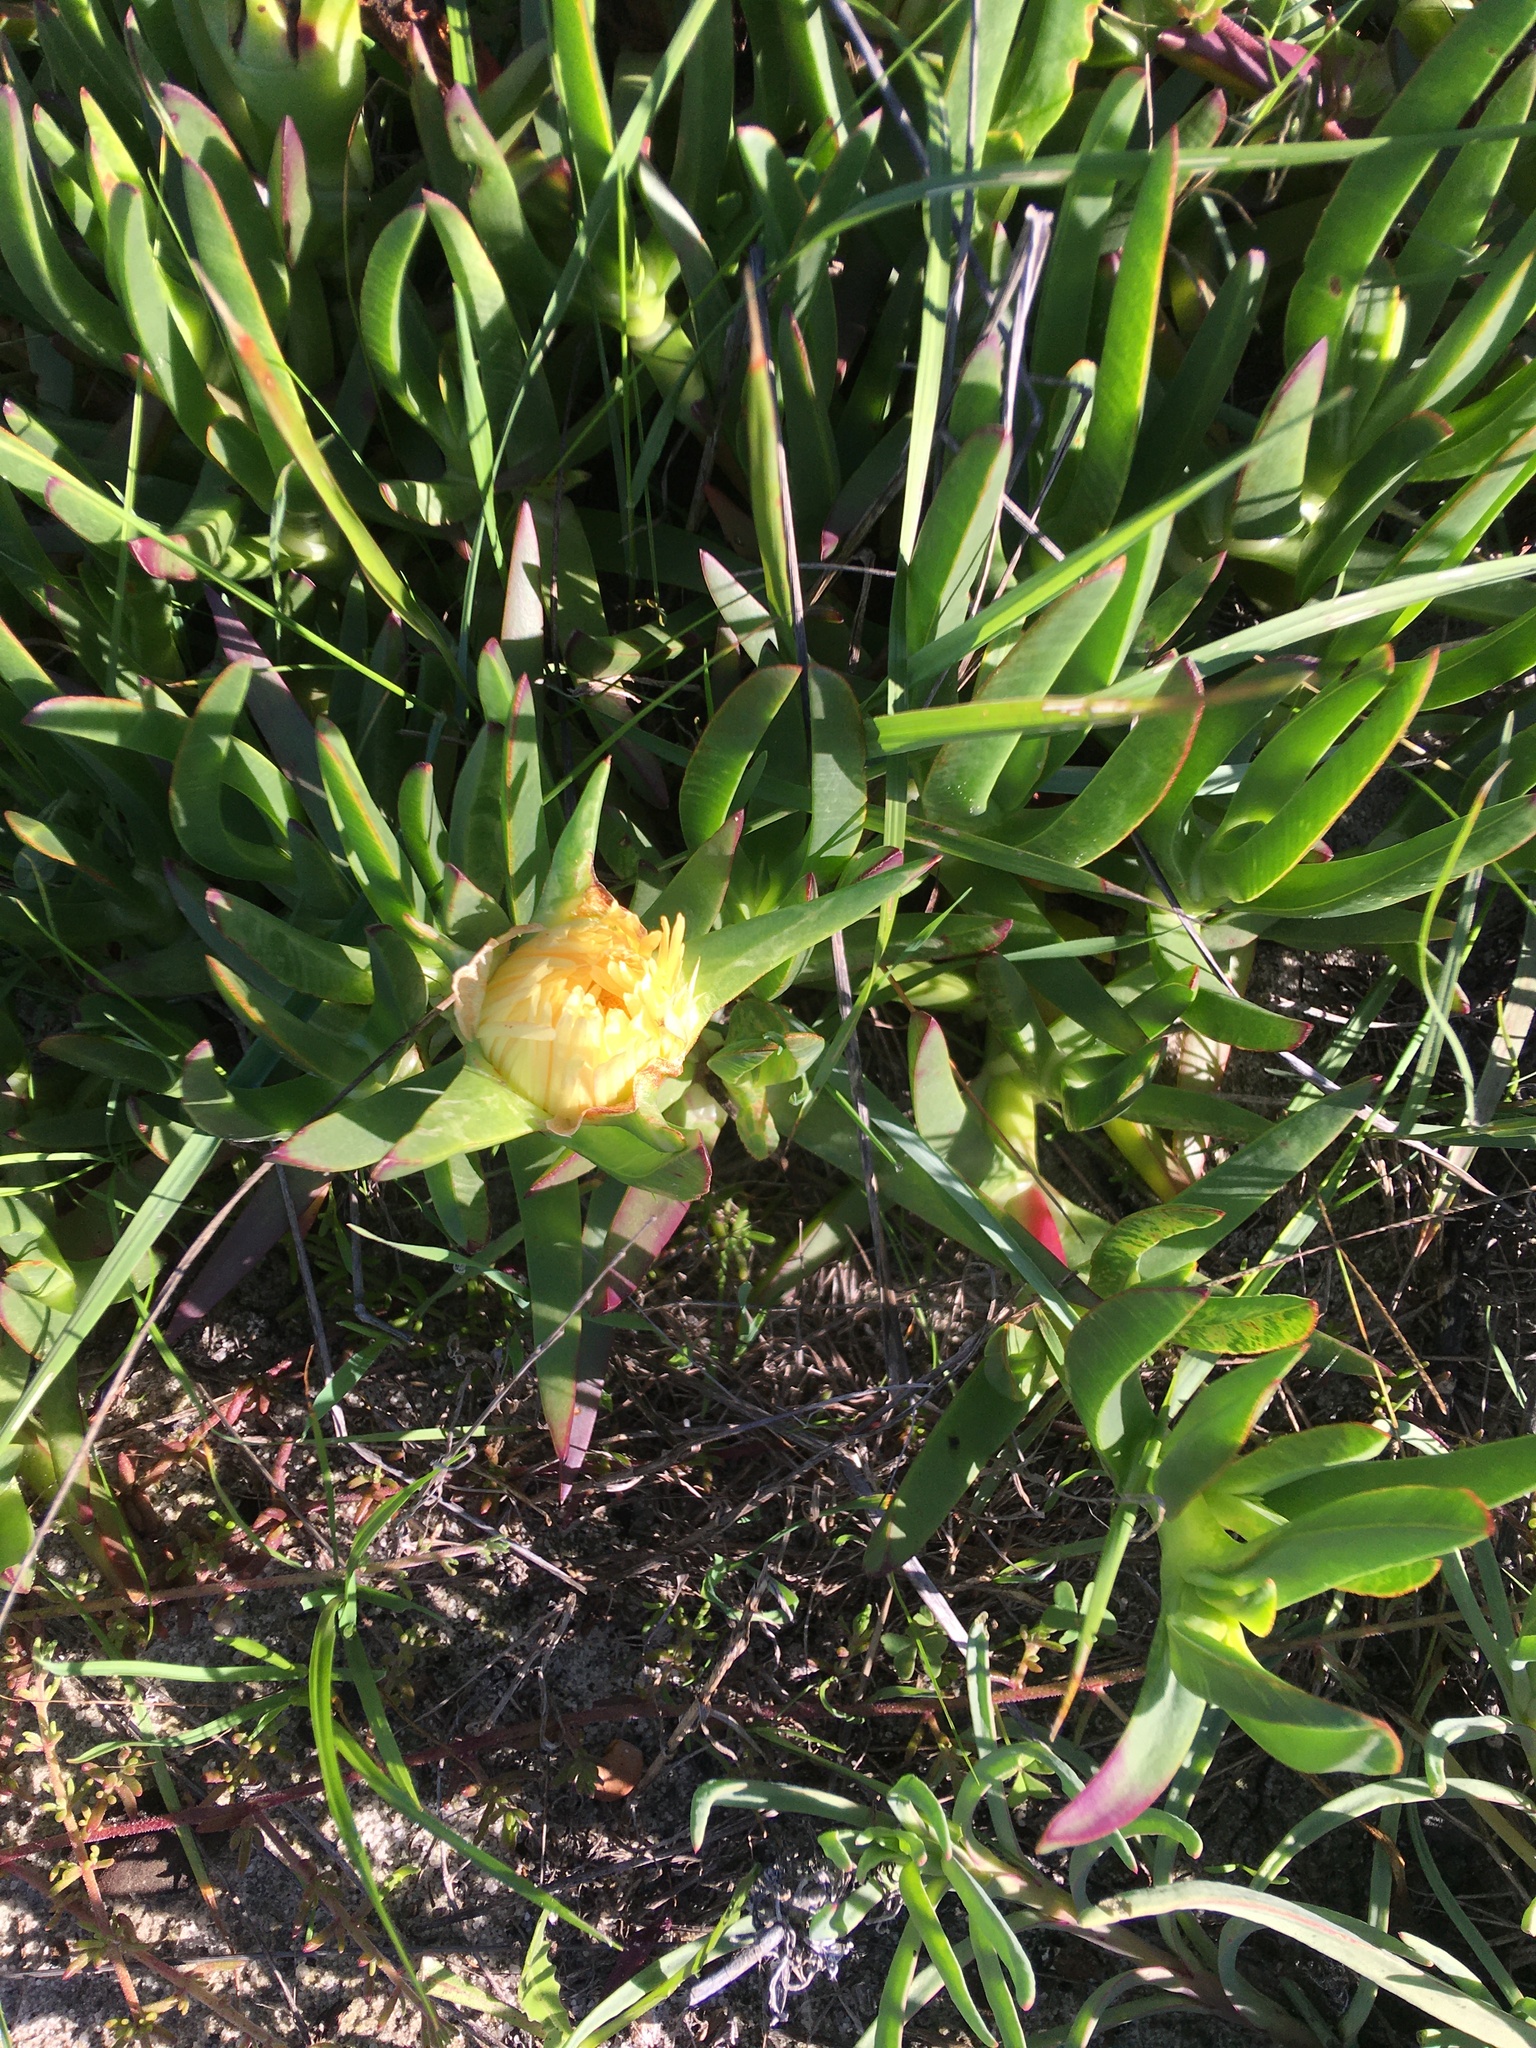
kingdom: Plantae
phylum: Tracheophyta
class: Magnoliopsida
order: Caryophyllales
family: Aizoaceae
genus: Carpobrotus
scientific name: Carpobrotus edulis
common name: Hottentot-fig
